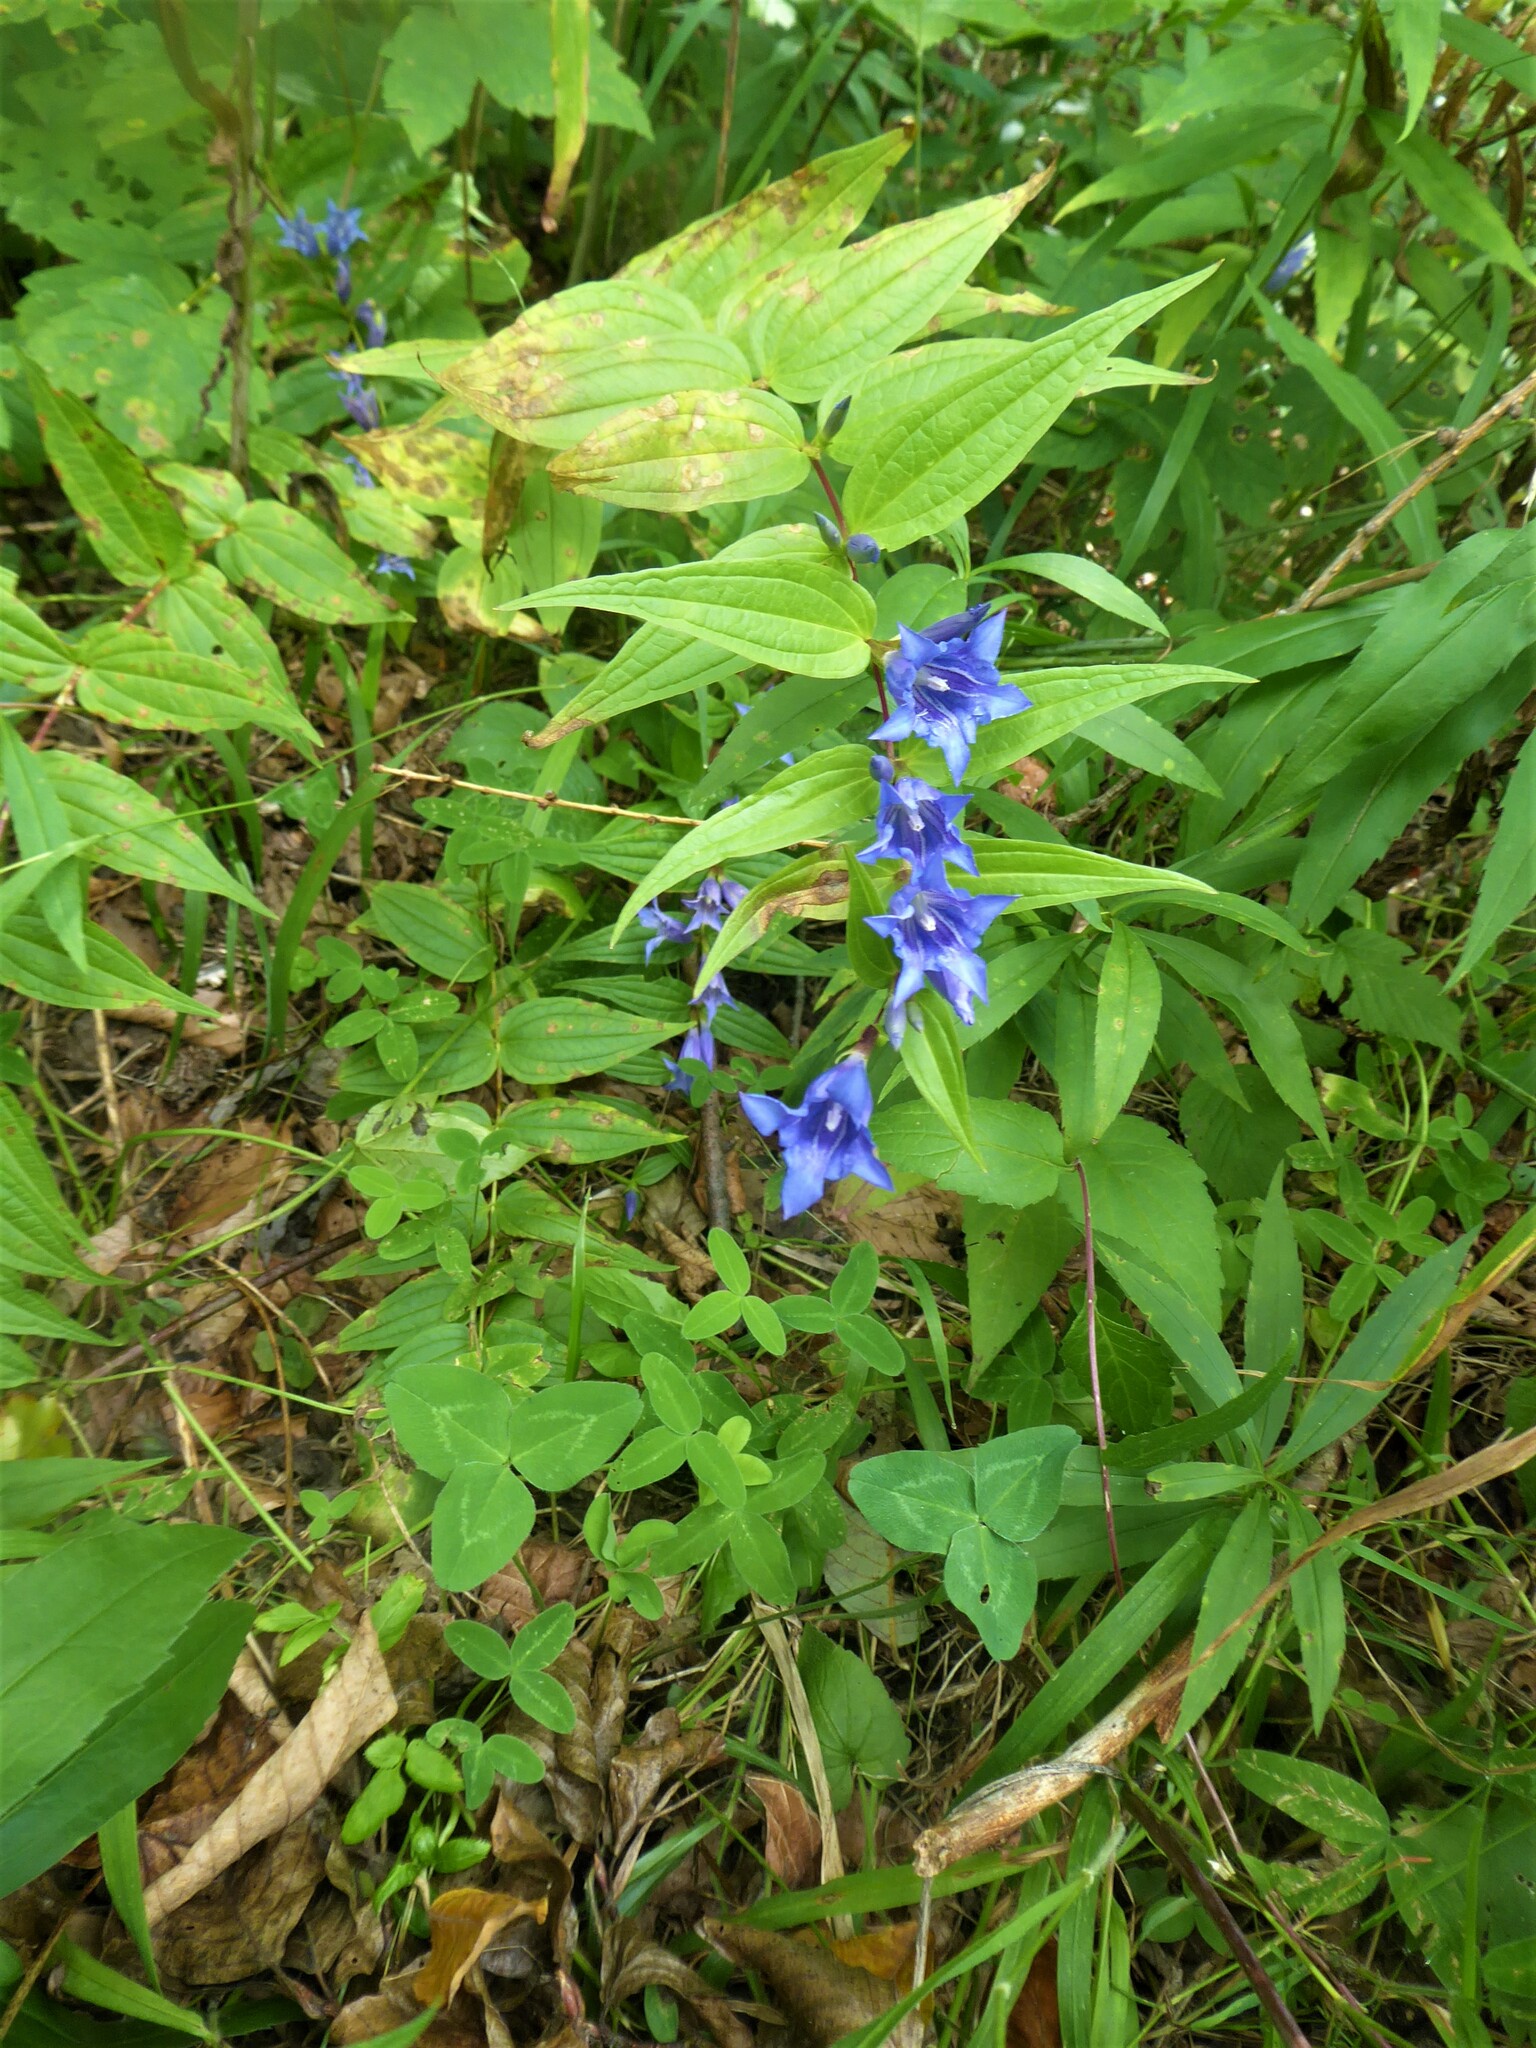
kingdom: Plantae
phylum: Tracheophyta
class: Magnoliopsida
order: Gentianales
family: Gentianaceae
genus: Gentiana
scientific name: Gentiana asclepiadea
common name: Willow gentian
